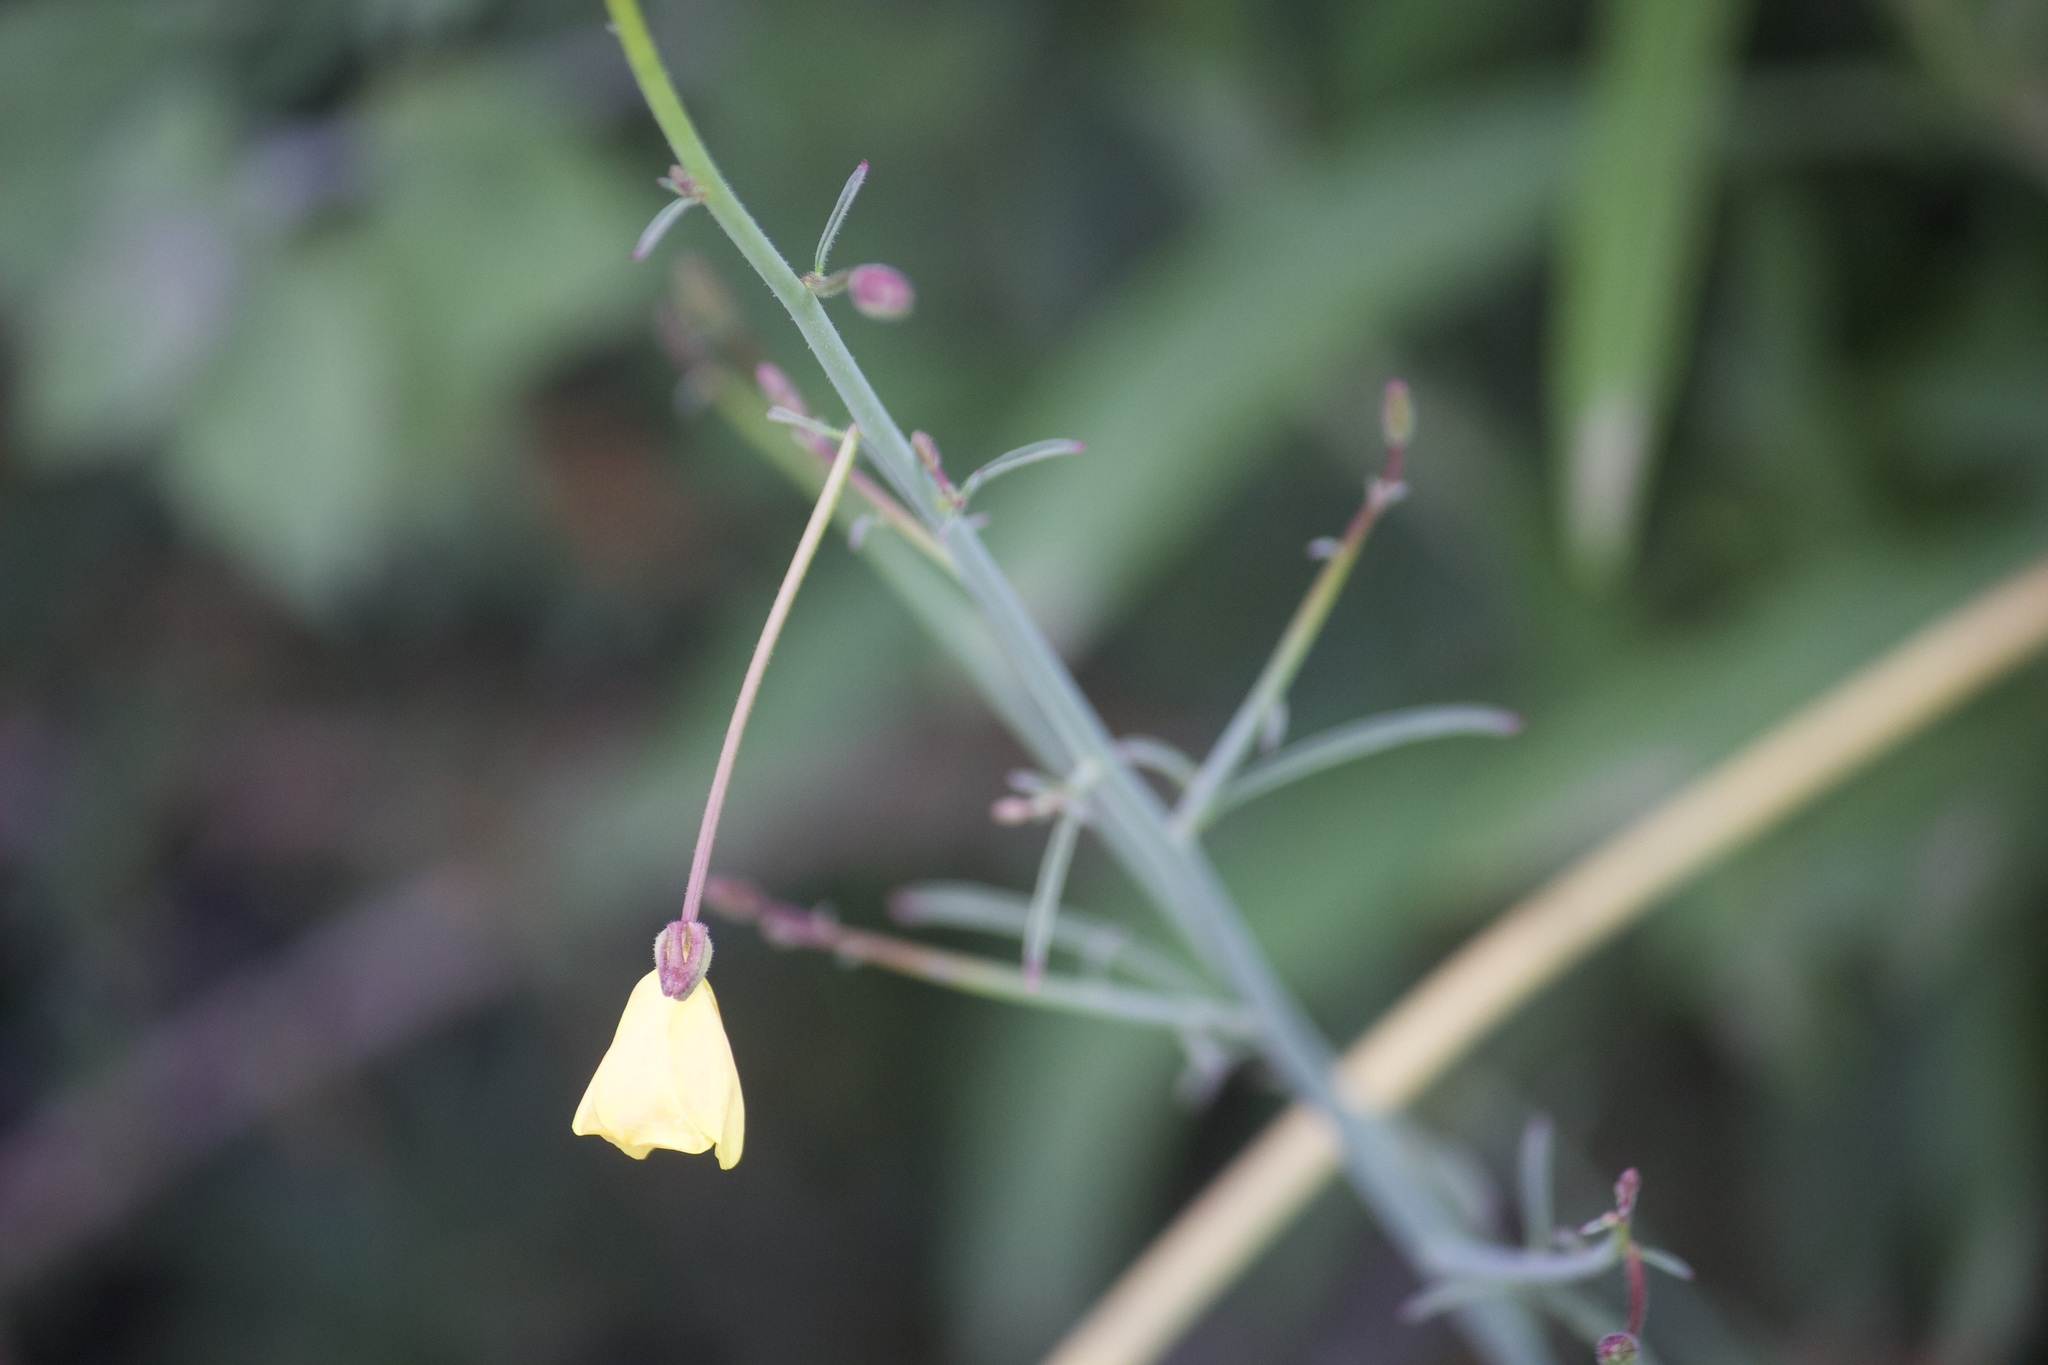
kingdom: Plantae
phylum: Tracheophyta
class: Magnoliopsida
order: Myrtales
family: Onagraceae
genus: Eulobus
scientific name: Eulobus californicus
